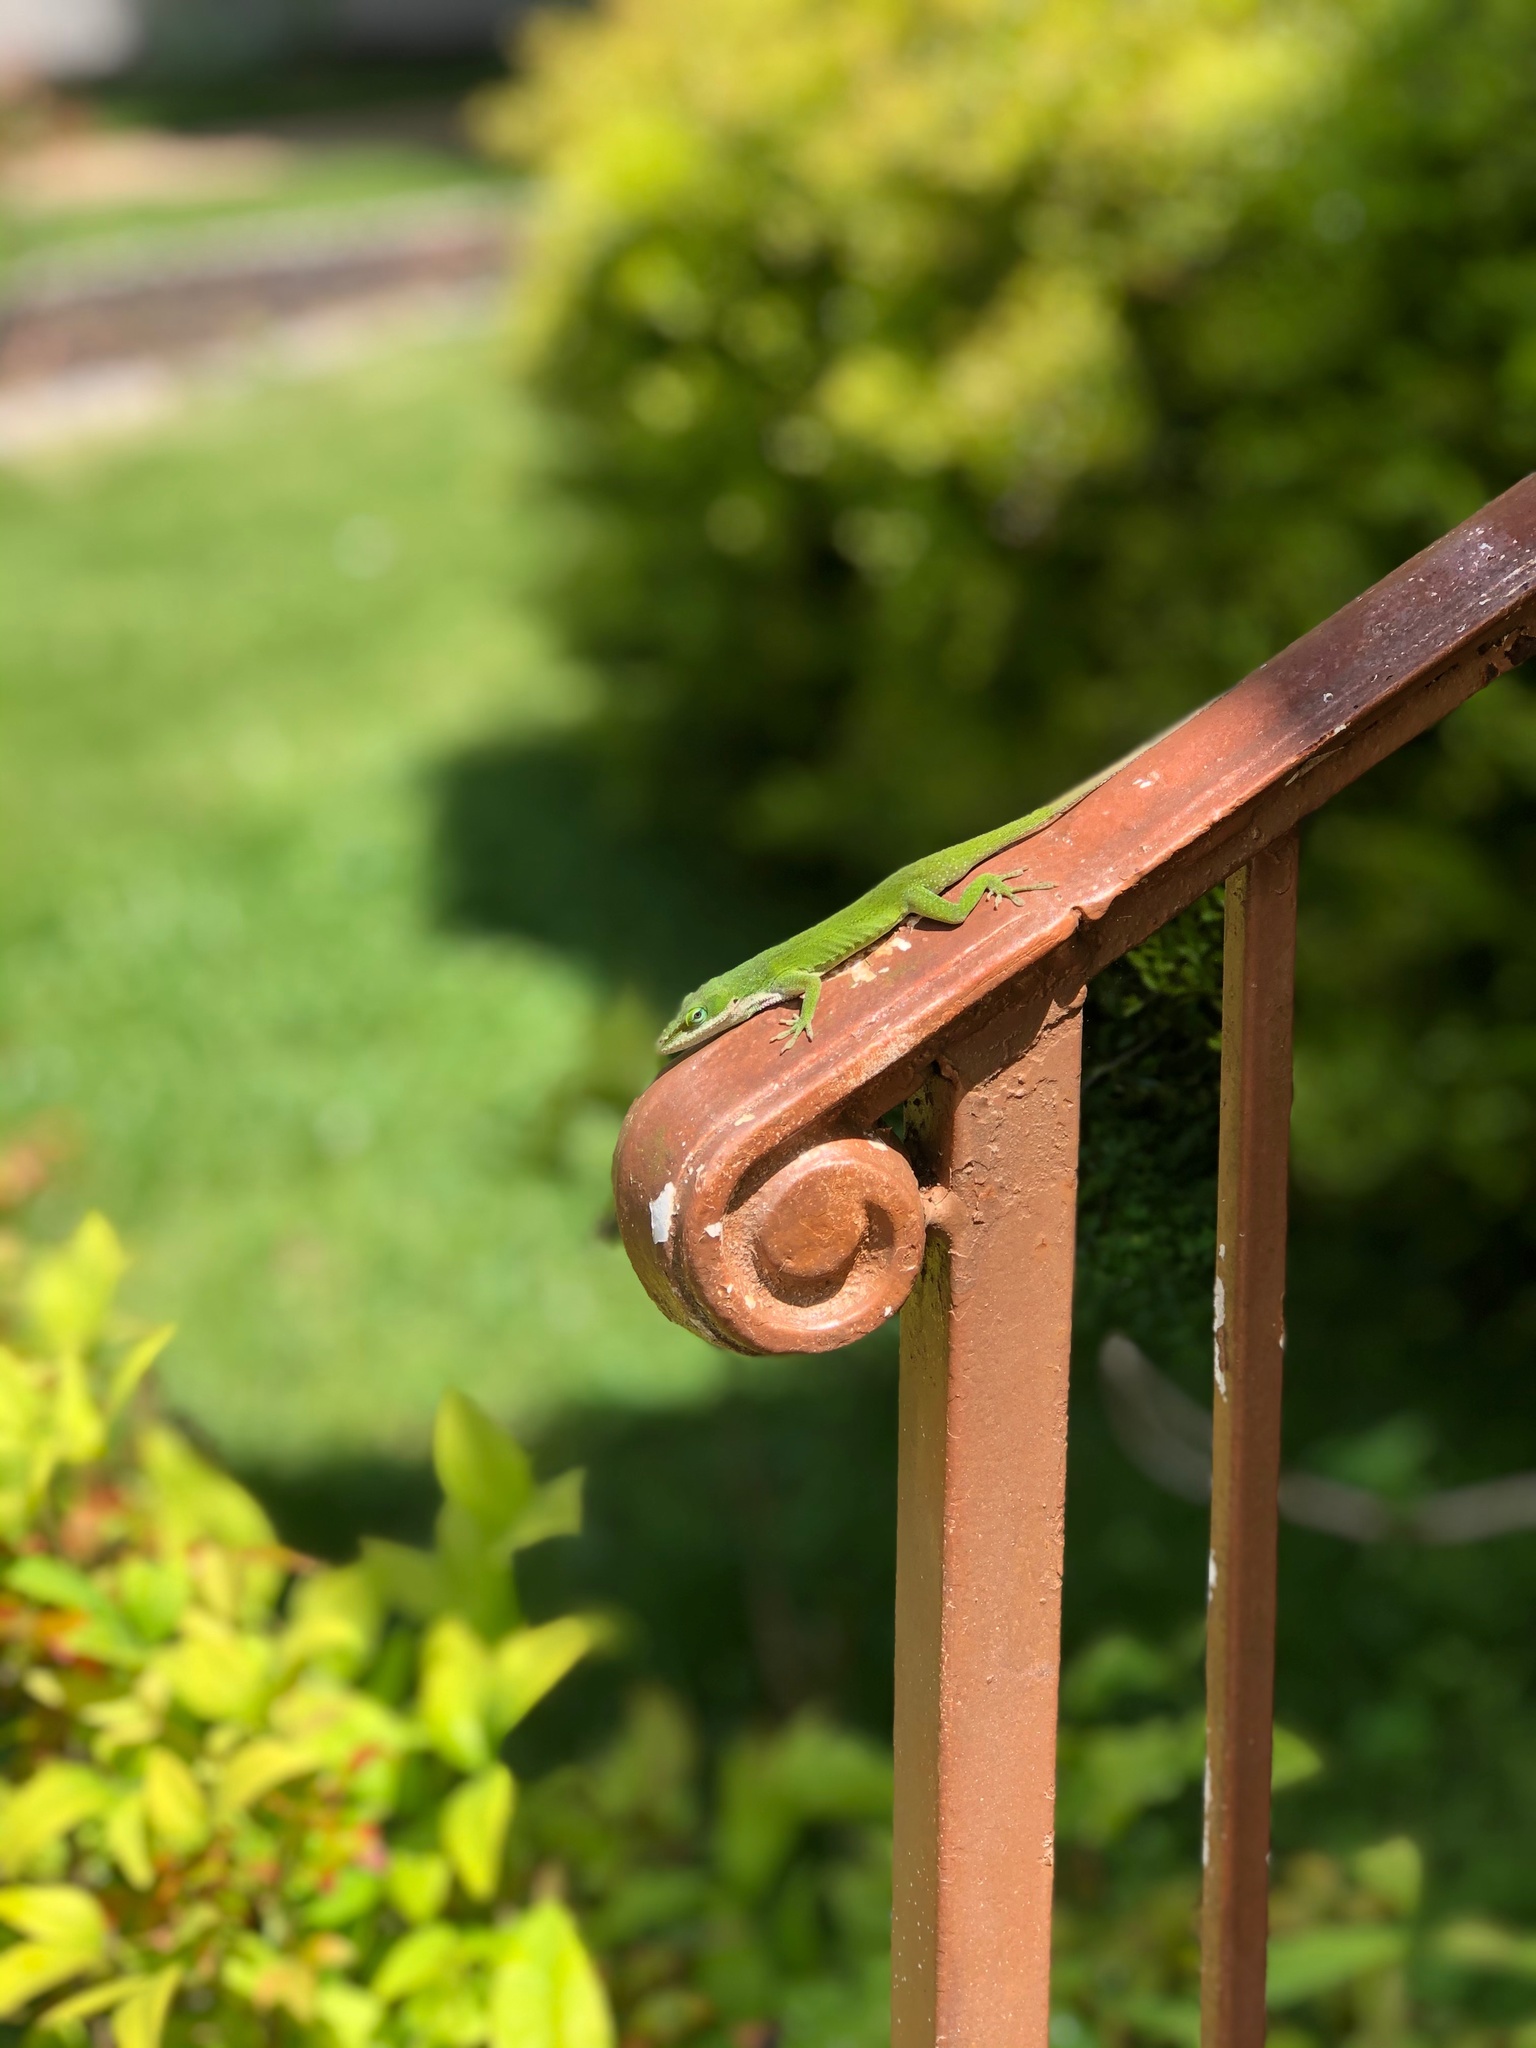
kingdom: Animalia
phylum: Chordata
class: Squamata
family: Dactyloidae
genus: Anolis
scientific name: Anolis carolinensis
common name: Green anole
